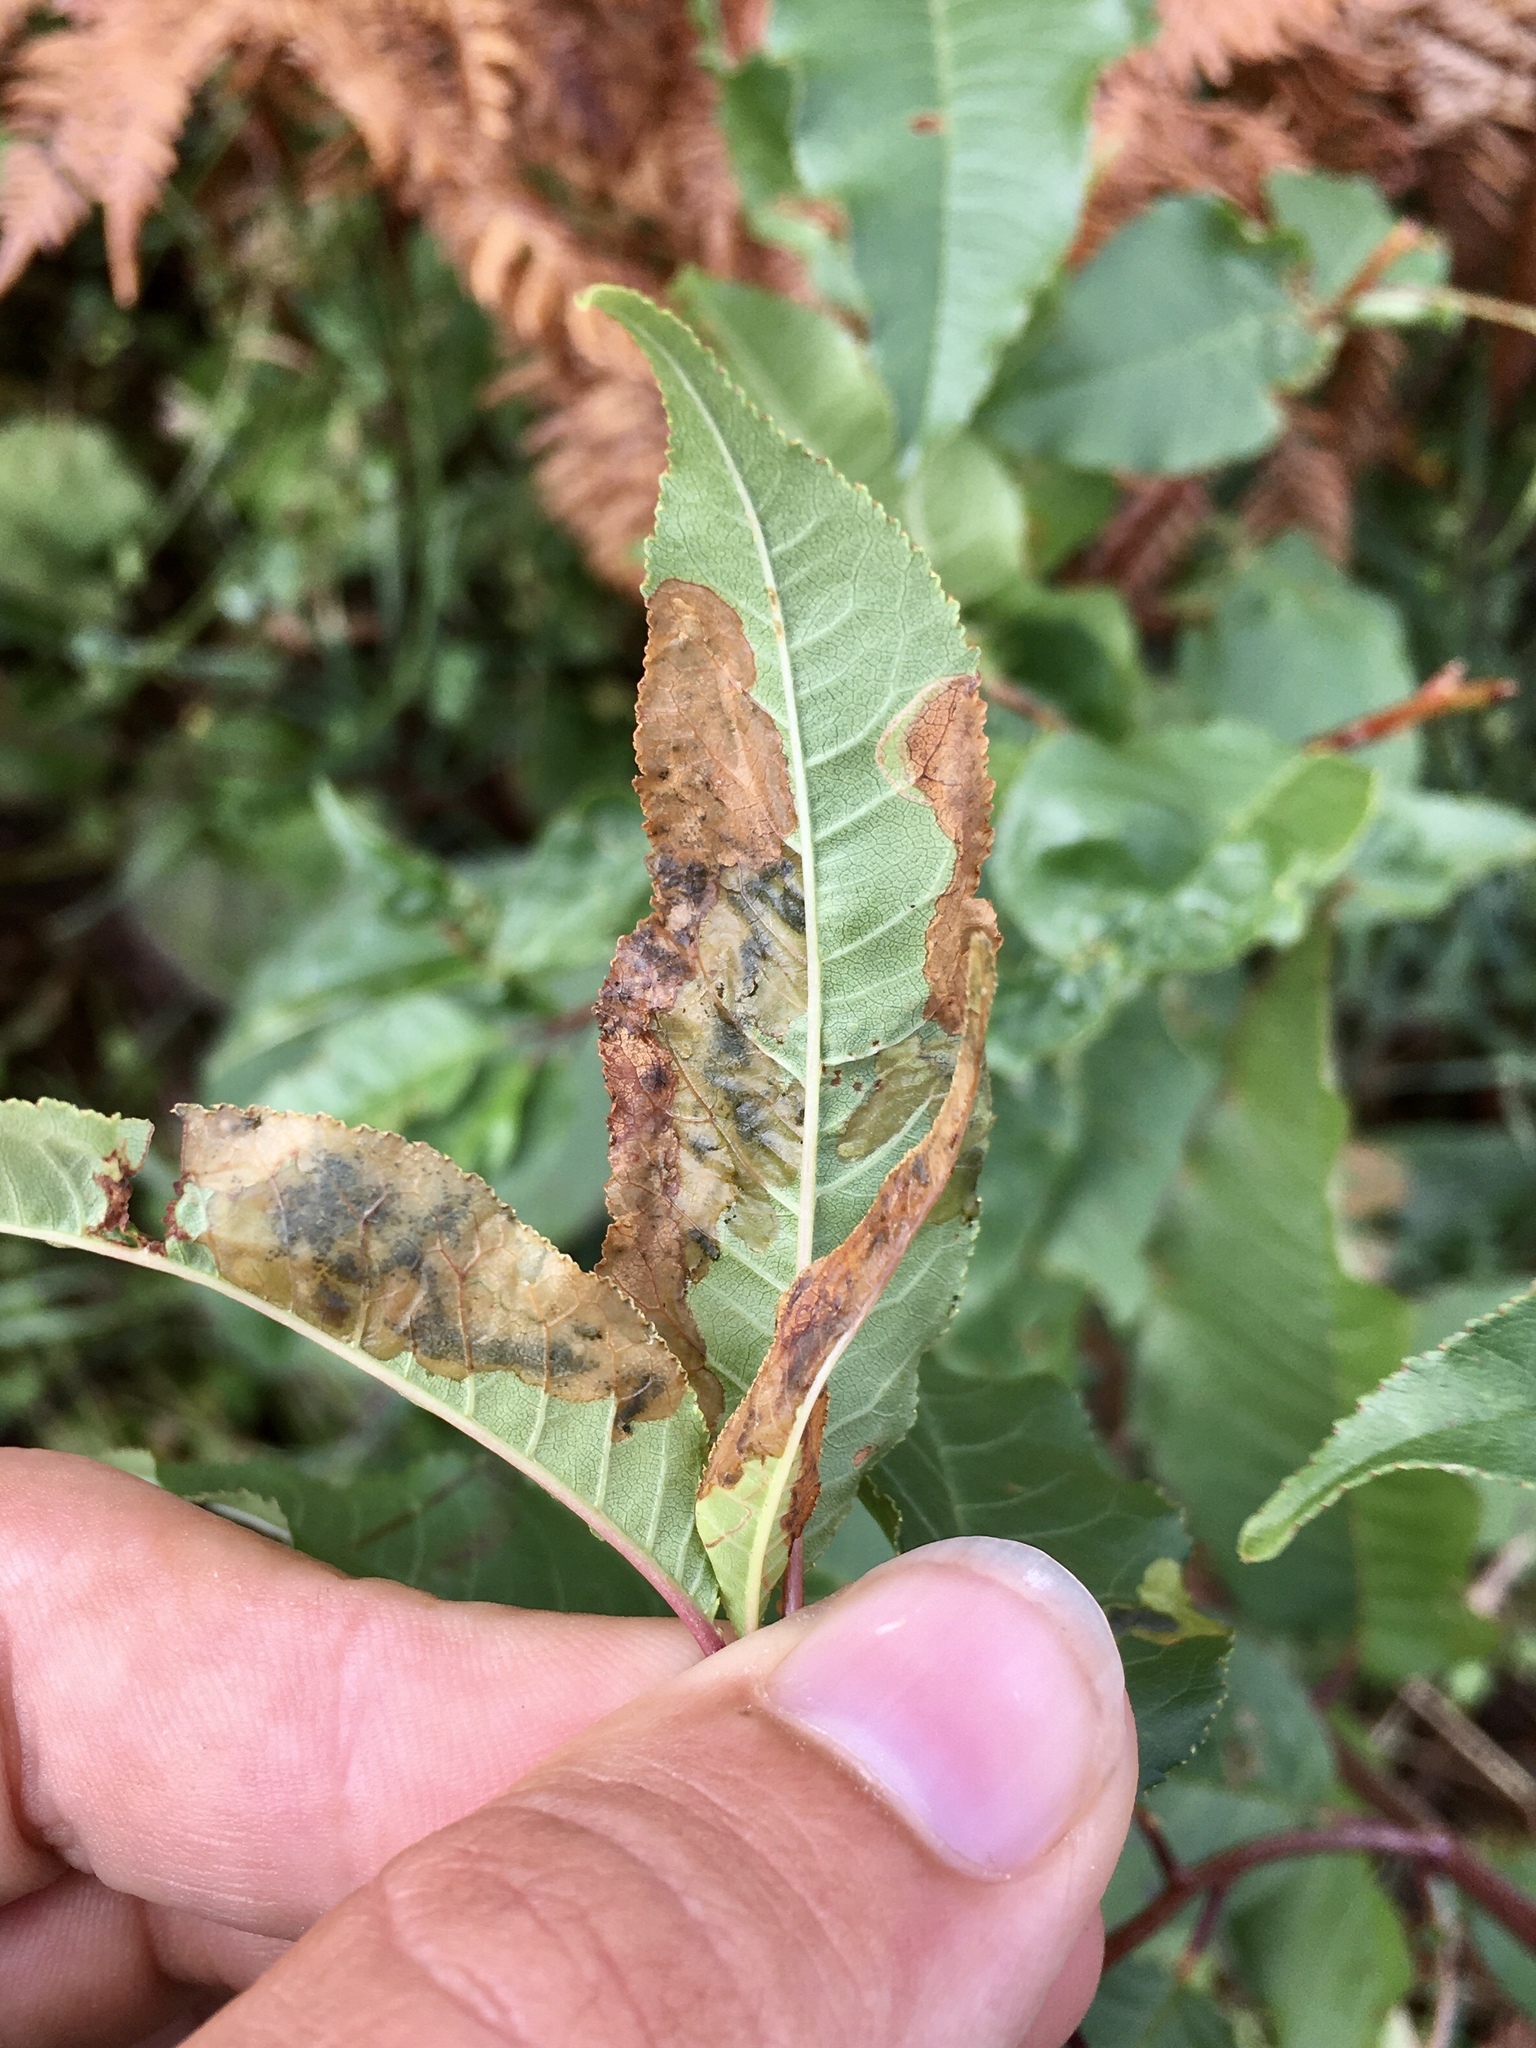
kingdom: Animalia
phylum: Arthropoda
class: Insecta
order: Lepidoptera
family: Lyonetiidae
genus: Lyonetia
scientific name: Lyonetia prunifoliella
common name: Striped bent-wing
